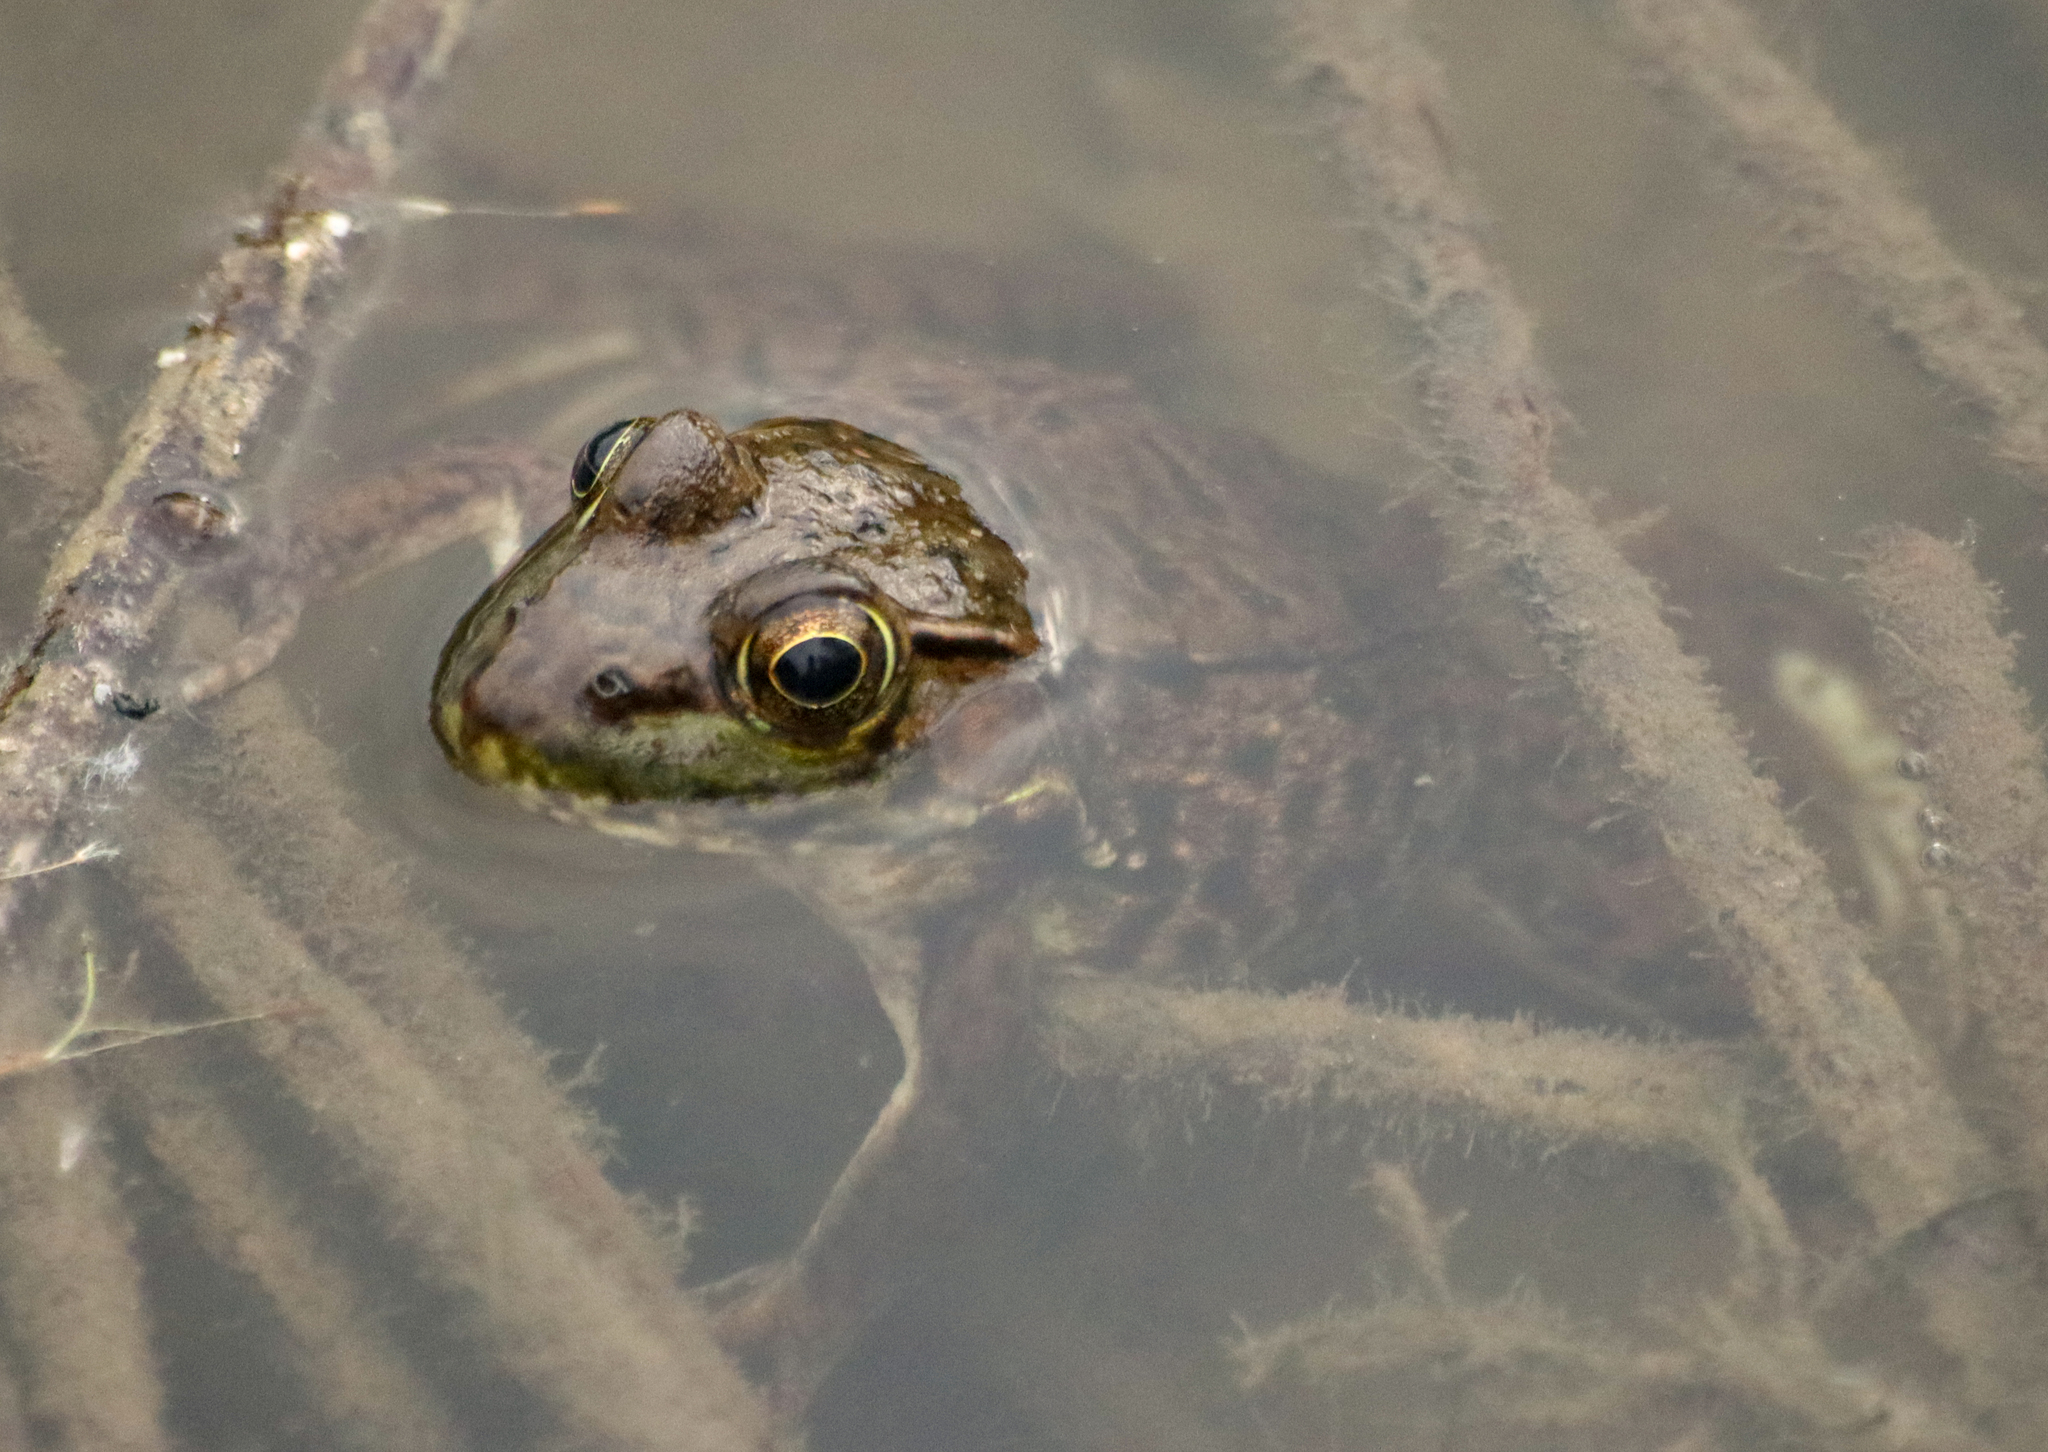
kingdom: Animalia
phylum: Chordata
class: Amphibia
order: Anura
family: Ranidae
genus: Lithobates
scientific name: Lithobates clamitans
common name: Green frog
